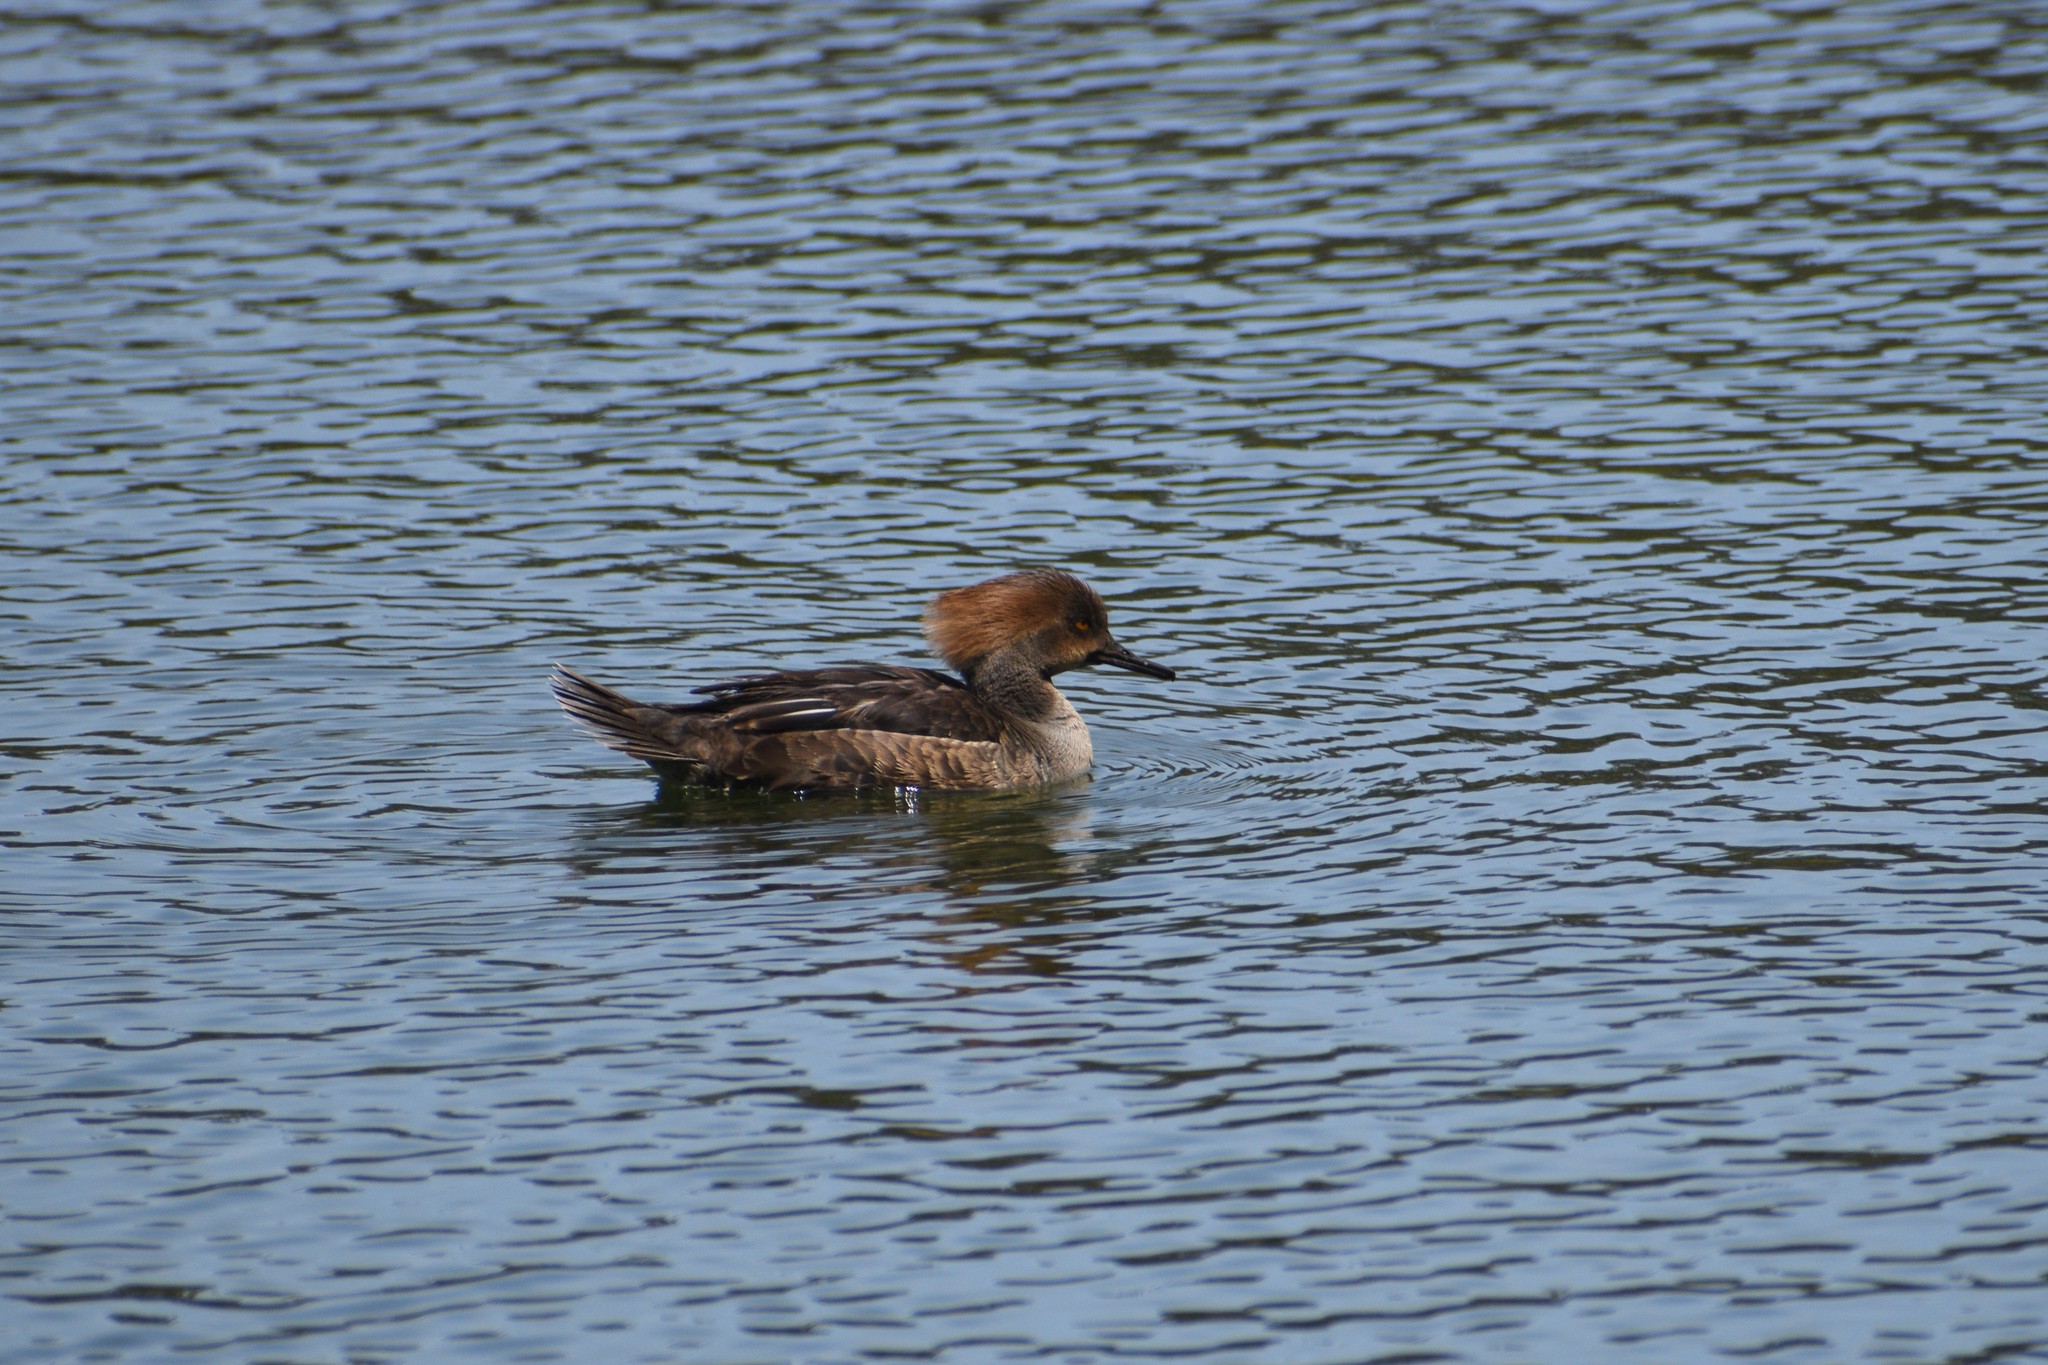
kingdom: Animalia
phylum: Chordata
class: Aves
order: Anseriformes
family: Anatidae
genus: Lophodytes
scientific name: Lophodytes cucullatus
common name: Hooded merganser
